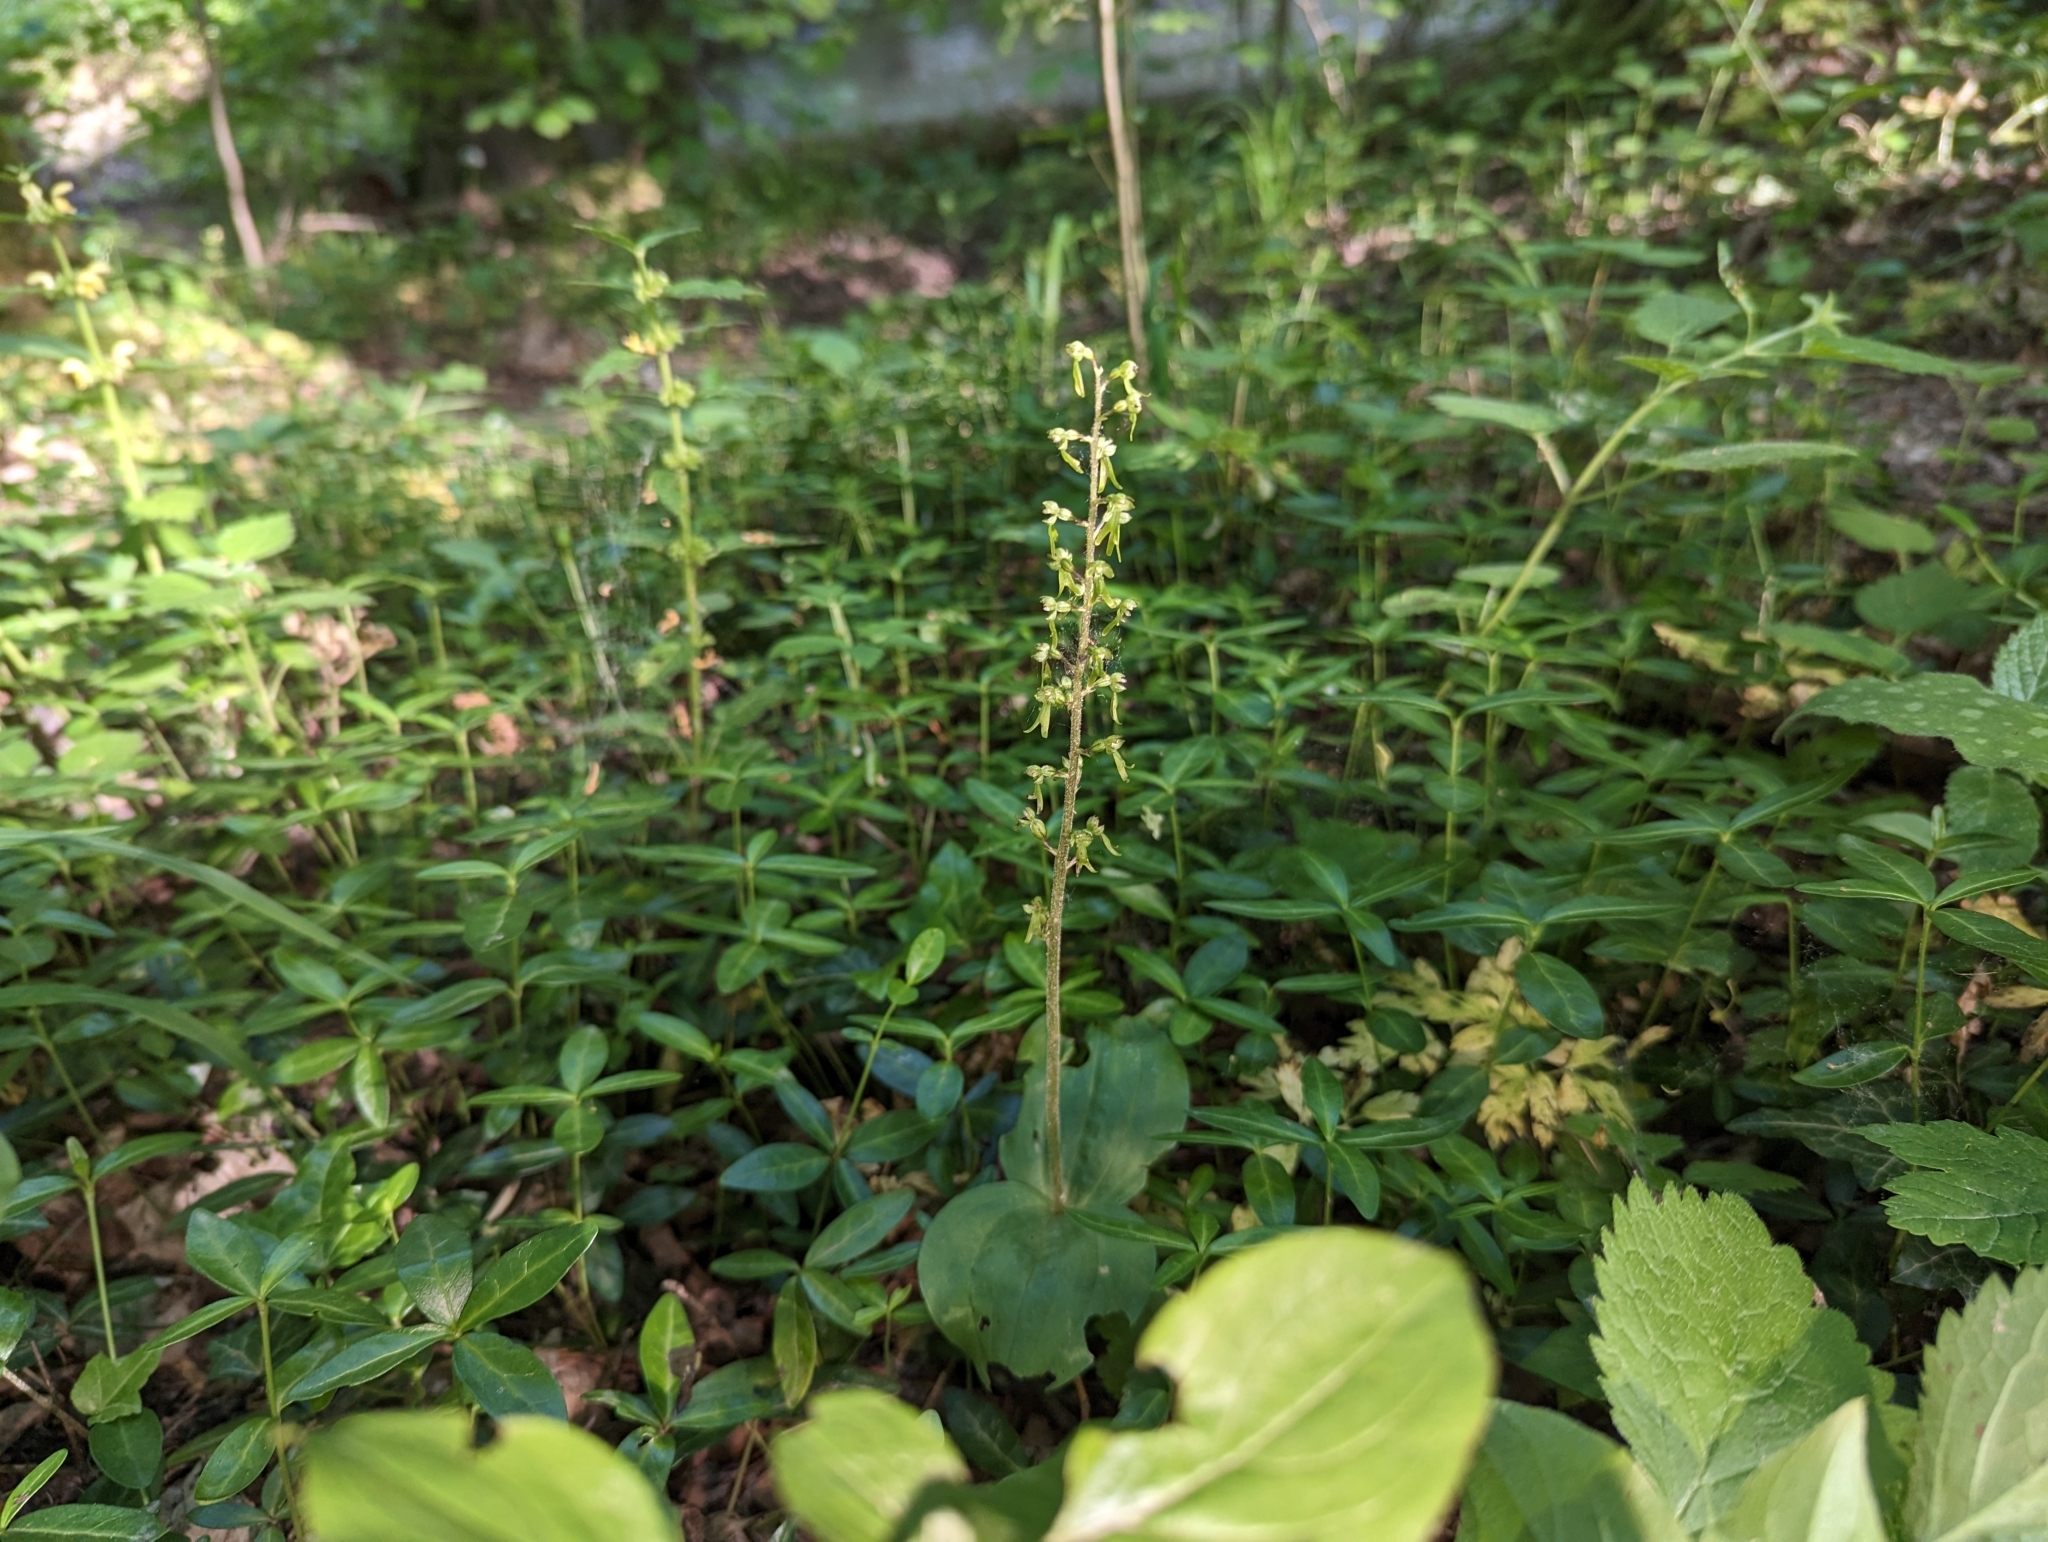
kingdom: Plantae
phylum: Tracheophyta
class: Liliopsida
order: Asparagales
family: Orchidaceae
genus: Neottia
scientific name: Neottia ovata
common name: Common twayblade
